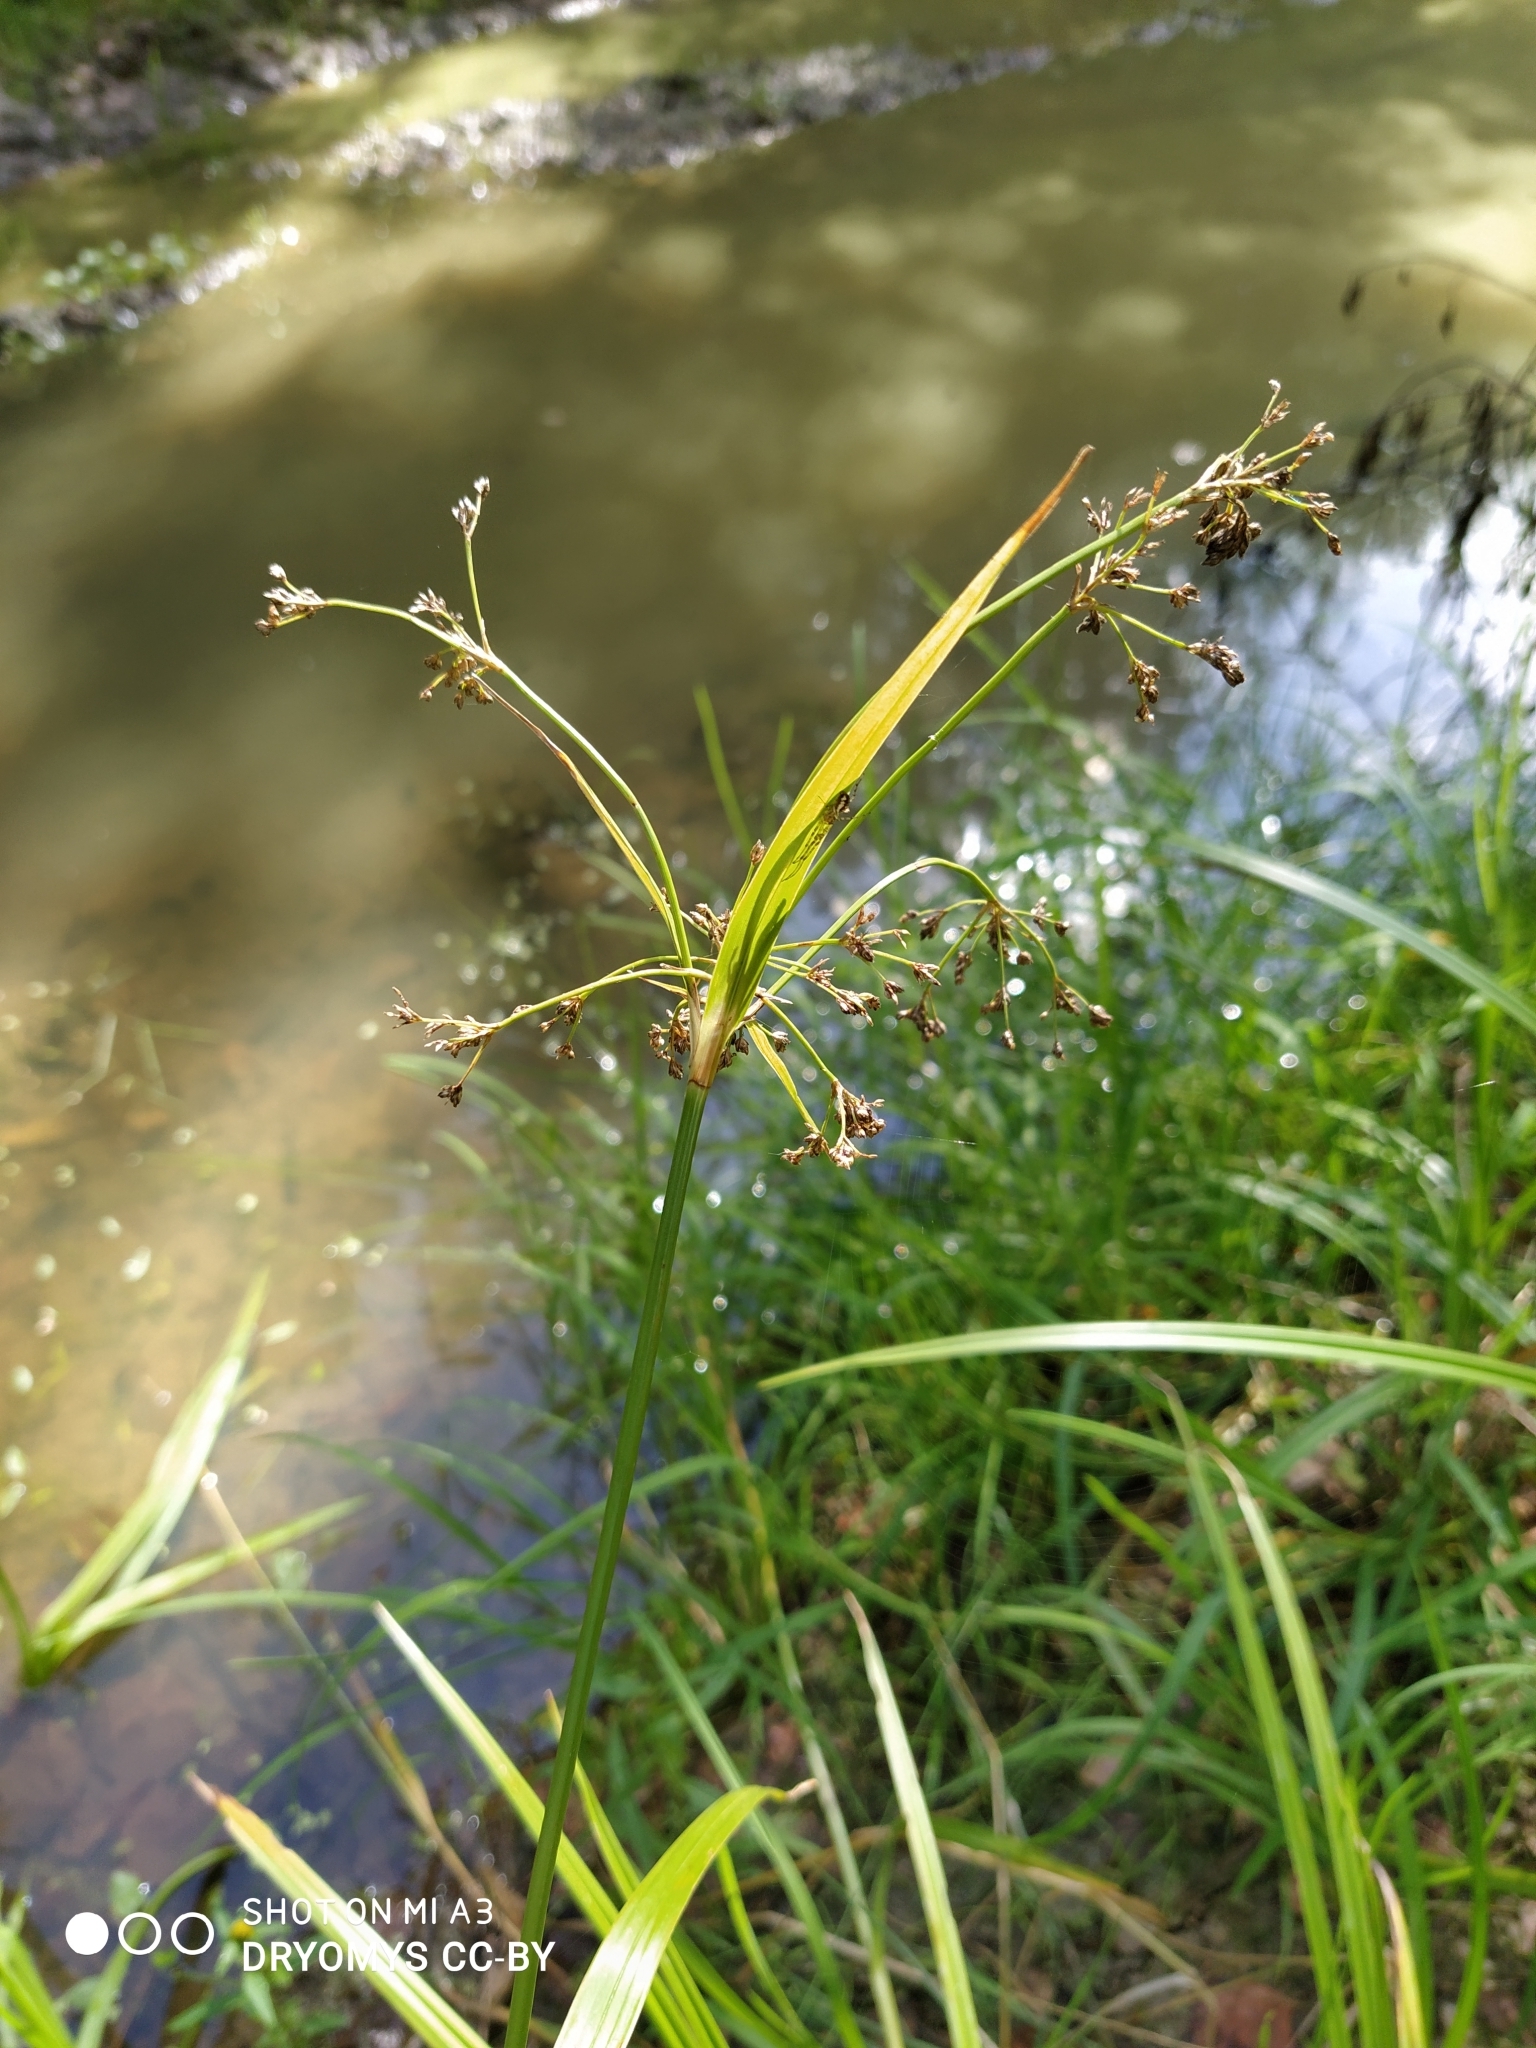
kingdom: Plantae
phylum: Tracheophyta
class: Liliopsida
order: Poales
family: Cyperaceae
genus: Scirpus
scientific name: Scirpus sylvaticus
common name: Wood club-rush
